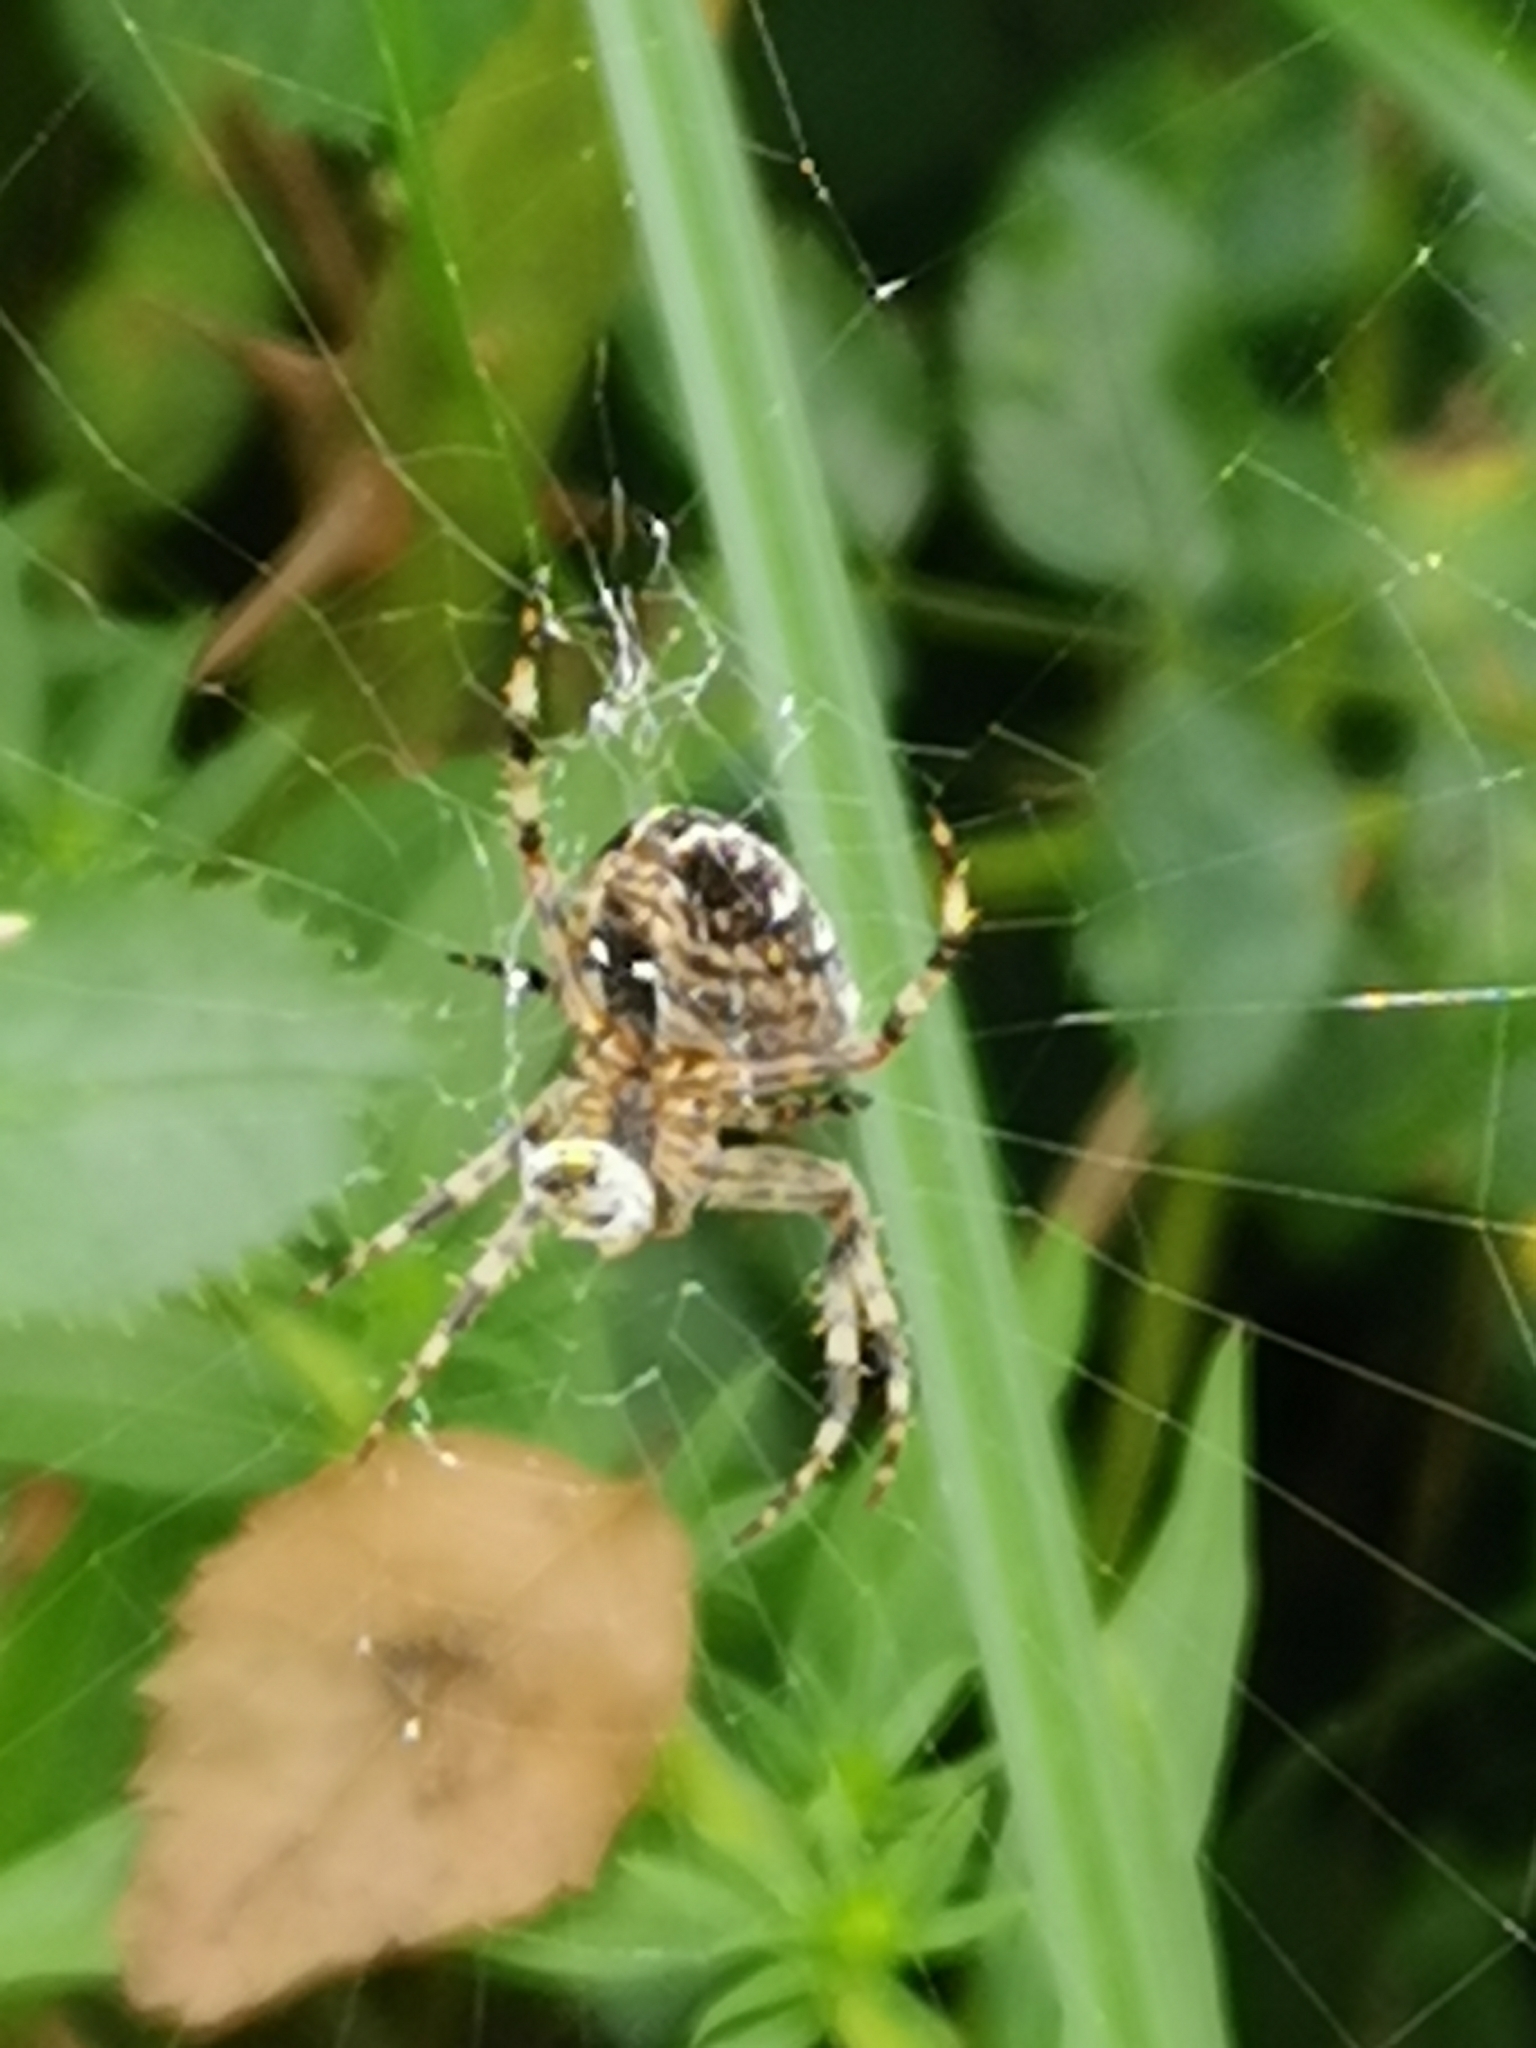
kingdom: Animalia
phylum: Arthropoda
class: Arachnida
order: Araneae
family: Araneidae
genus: Araneus
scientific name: Araneus diadematus
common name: Cross orbweaver
